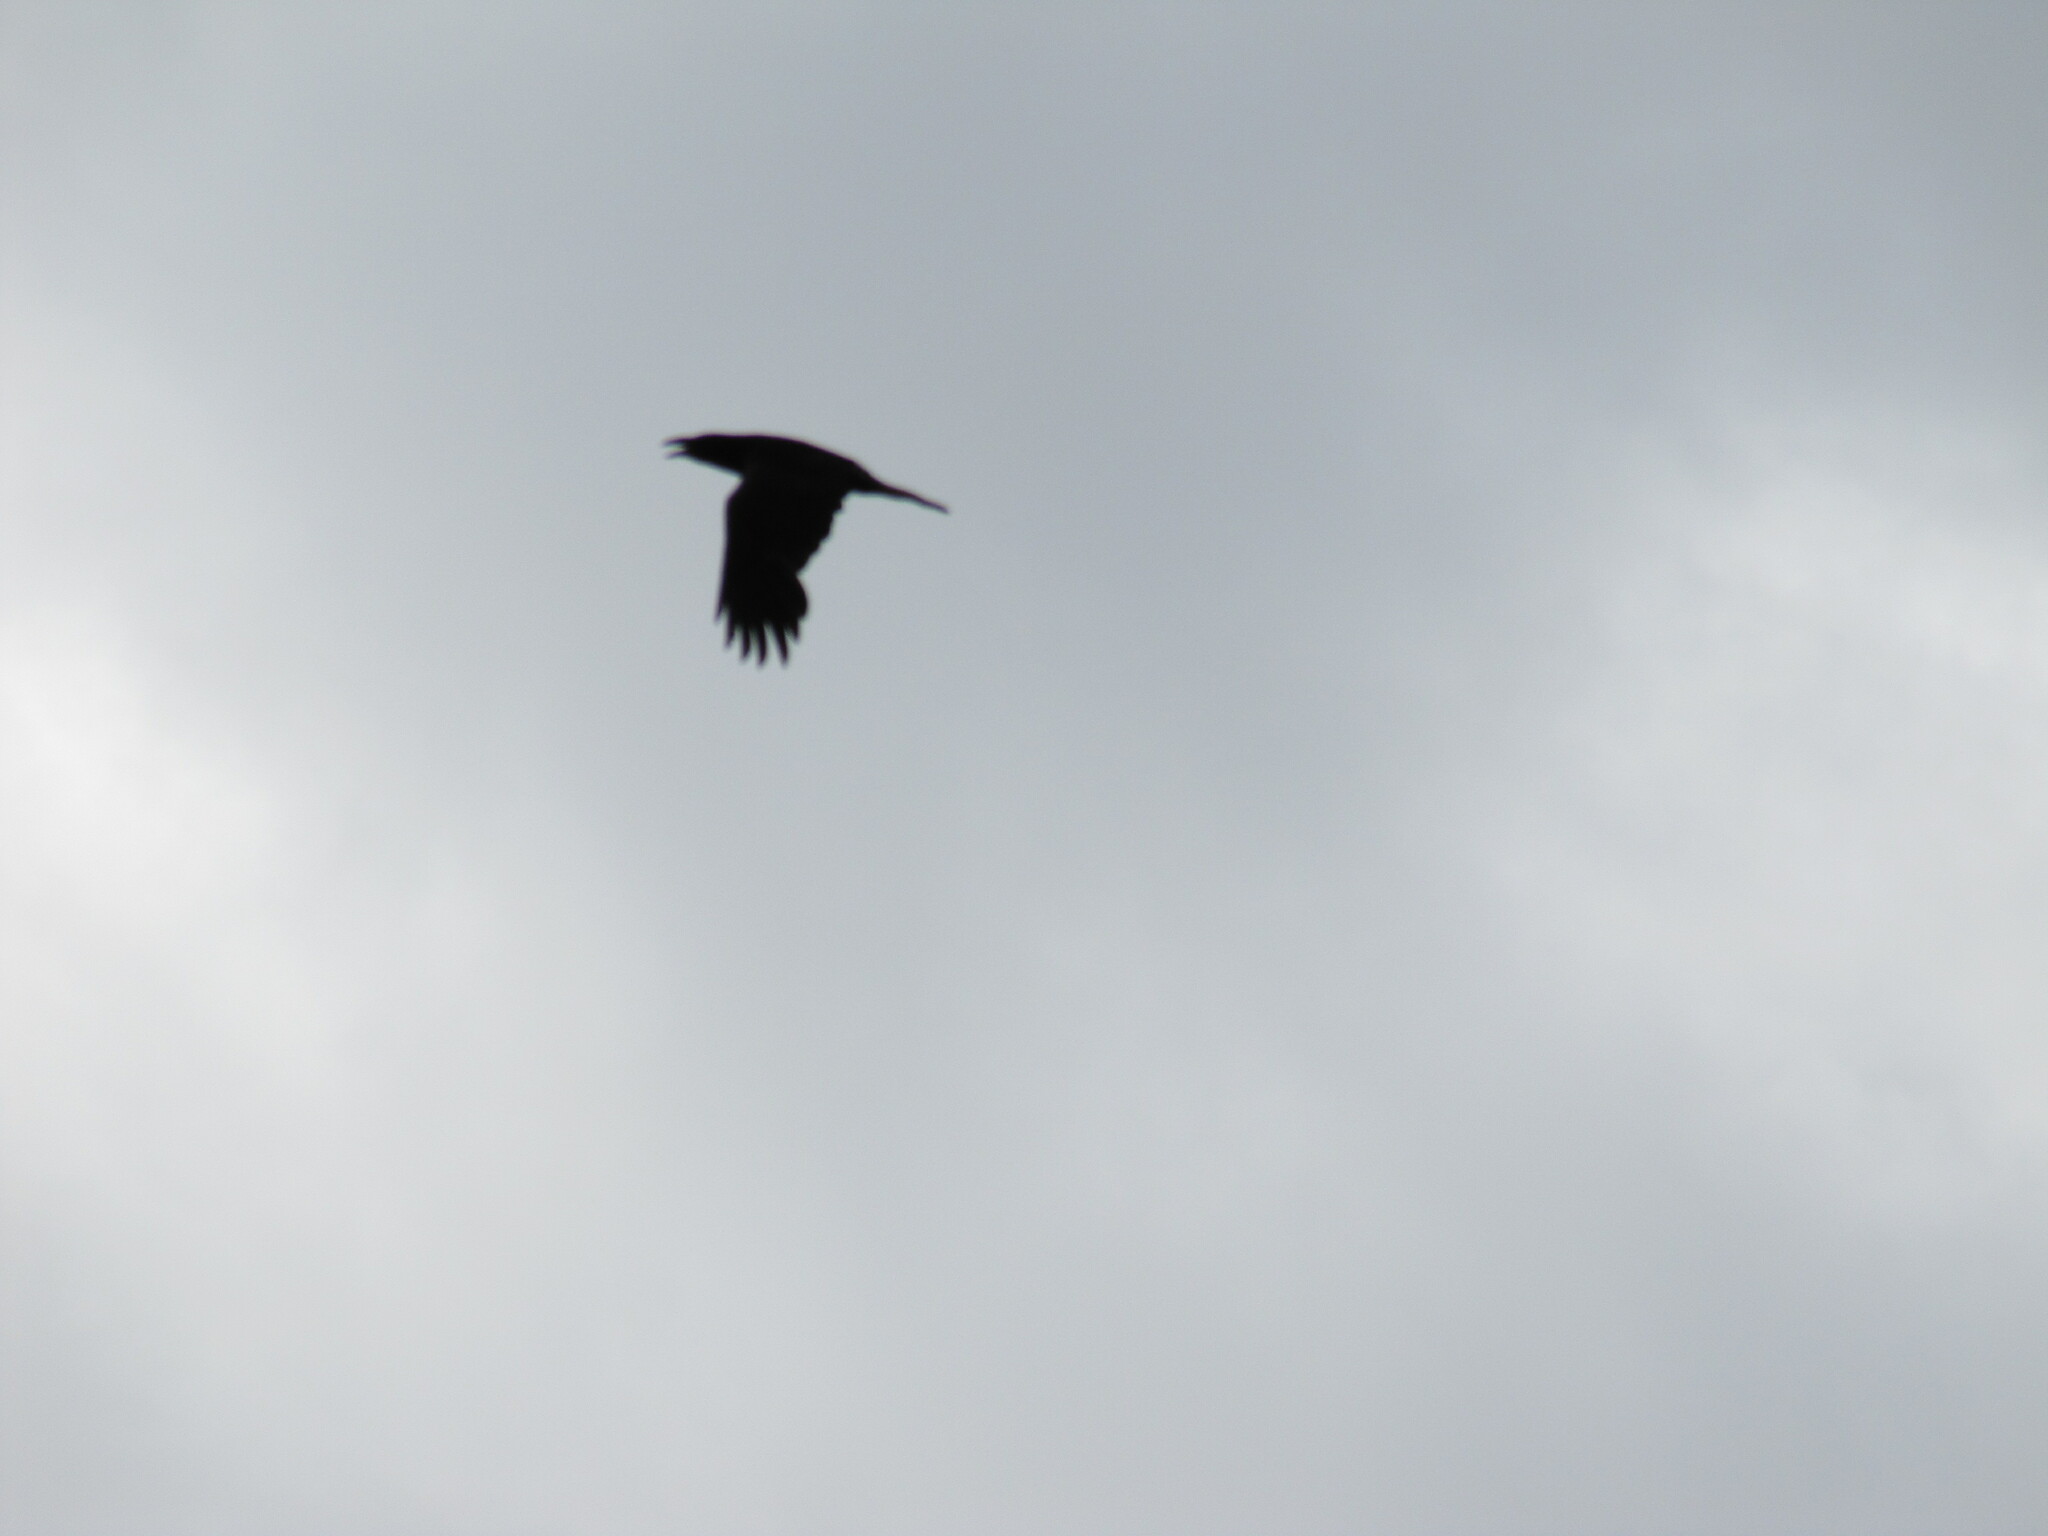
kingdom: Animalia
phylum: Chordata
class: Aves
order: Passeriformes
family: Corvidae
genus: Corvus
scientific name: Corvus corax
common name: Common raven
